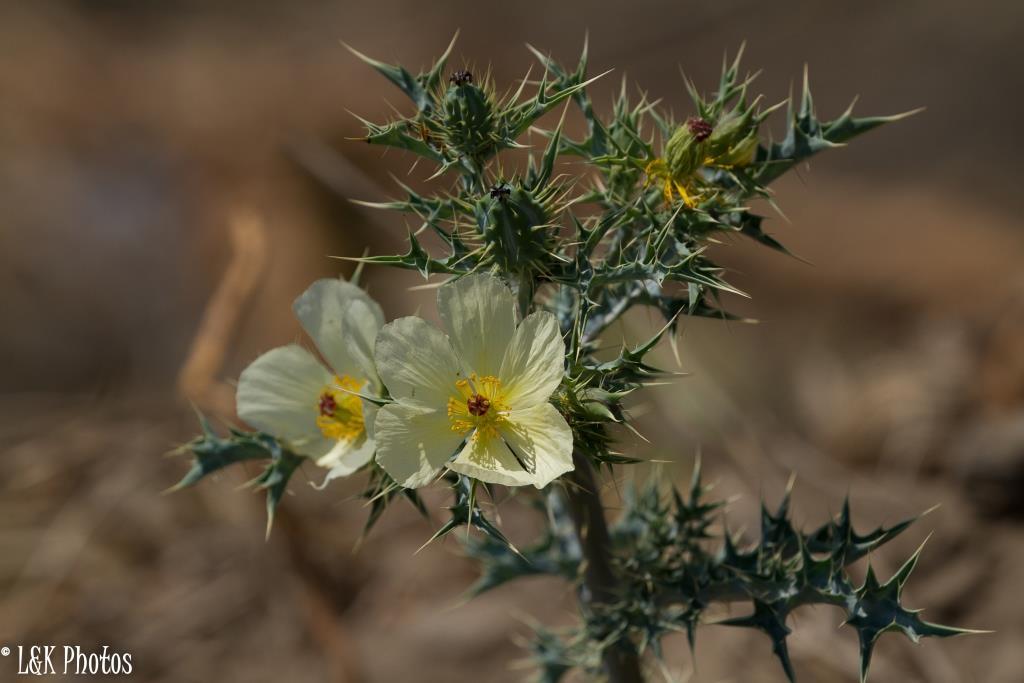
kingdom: Plantae
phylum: Tracheophyta
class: Magnoliopsida
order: Ranunculales
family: Papaveraceae
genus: Argemone
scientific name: Argemone mexicana
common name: Mexican poppy
